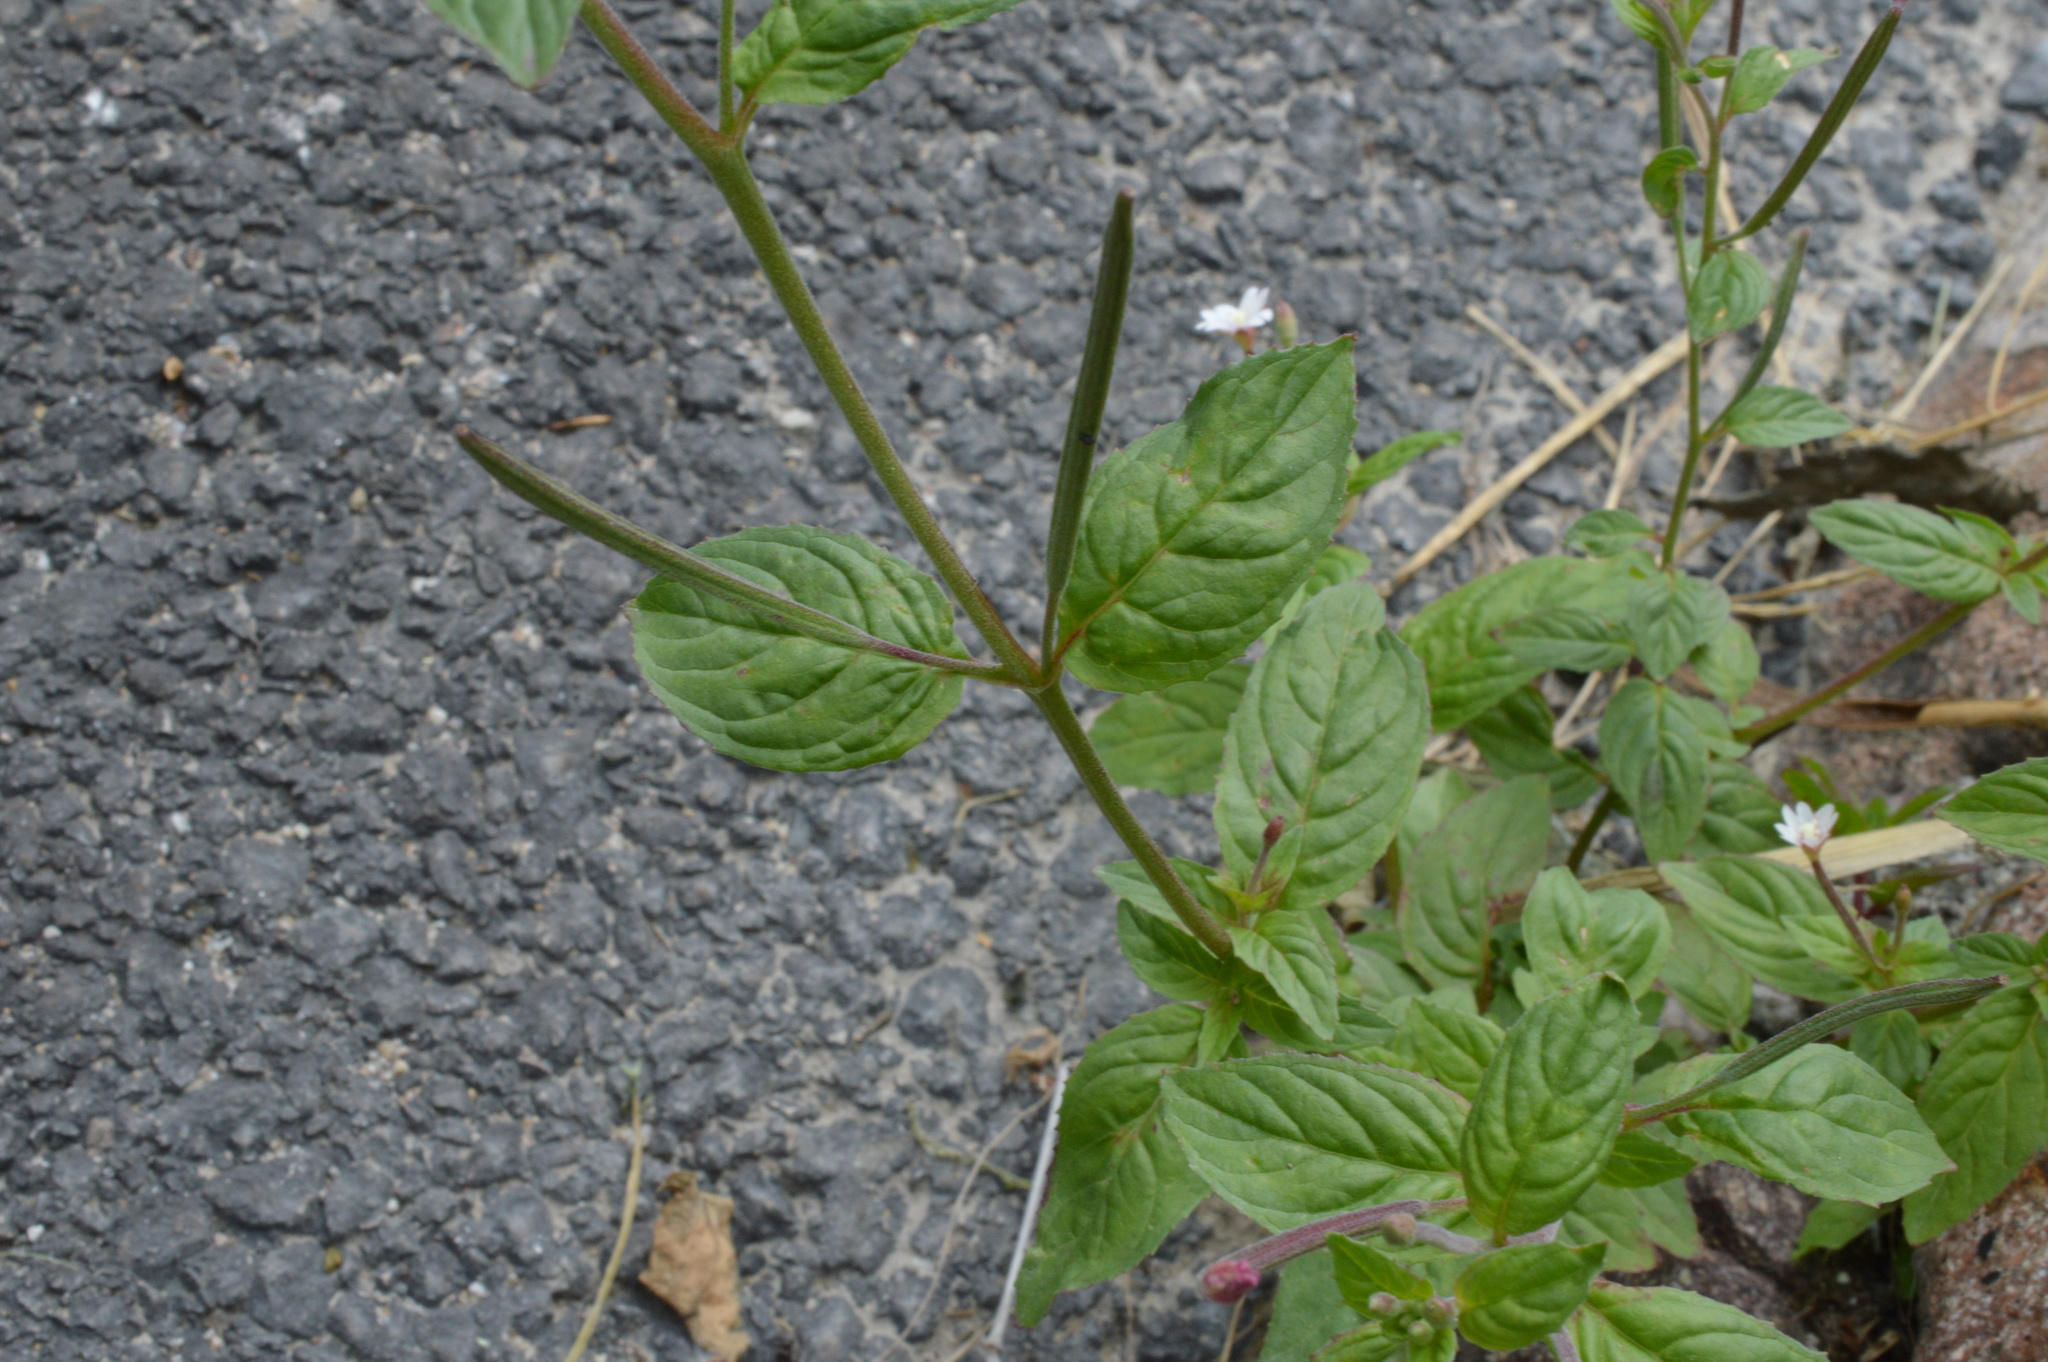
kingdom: Plantae
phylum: Tracheophyta
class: Magnoliopsida
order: Myrtales
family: Onagraceae
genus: Epilobium
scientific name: Epilobium roseum
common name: Pale willowherb
